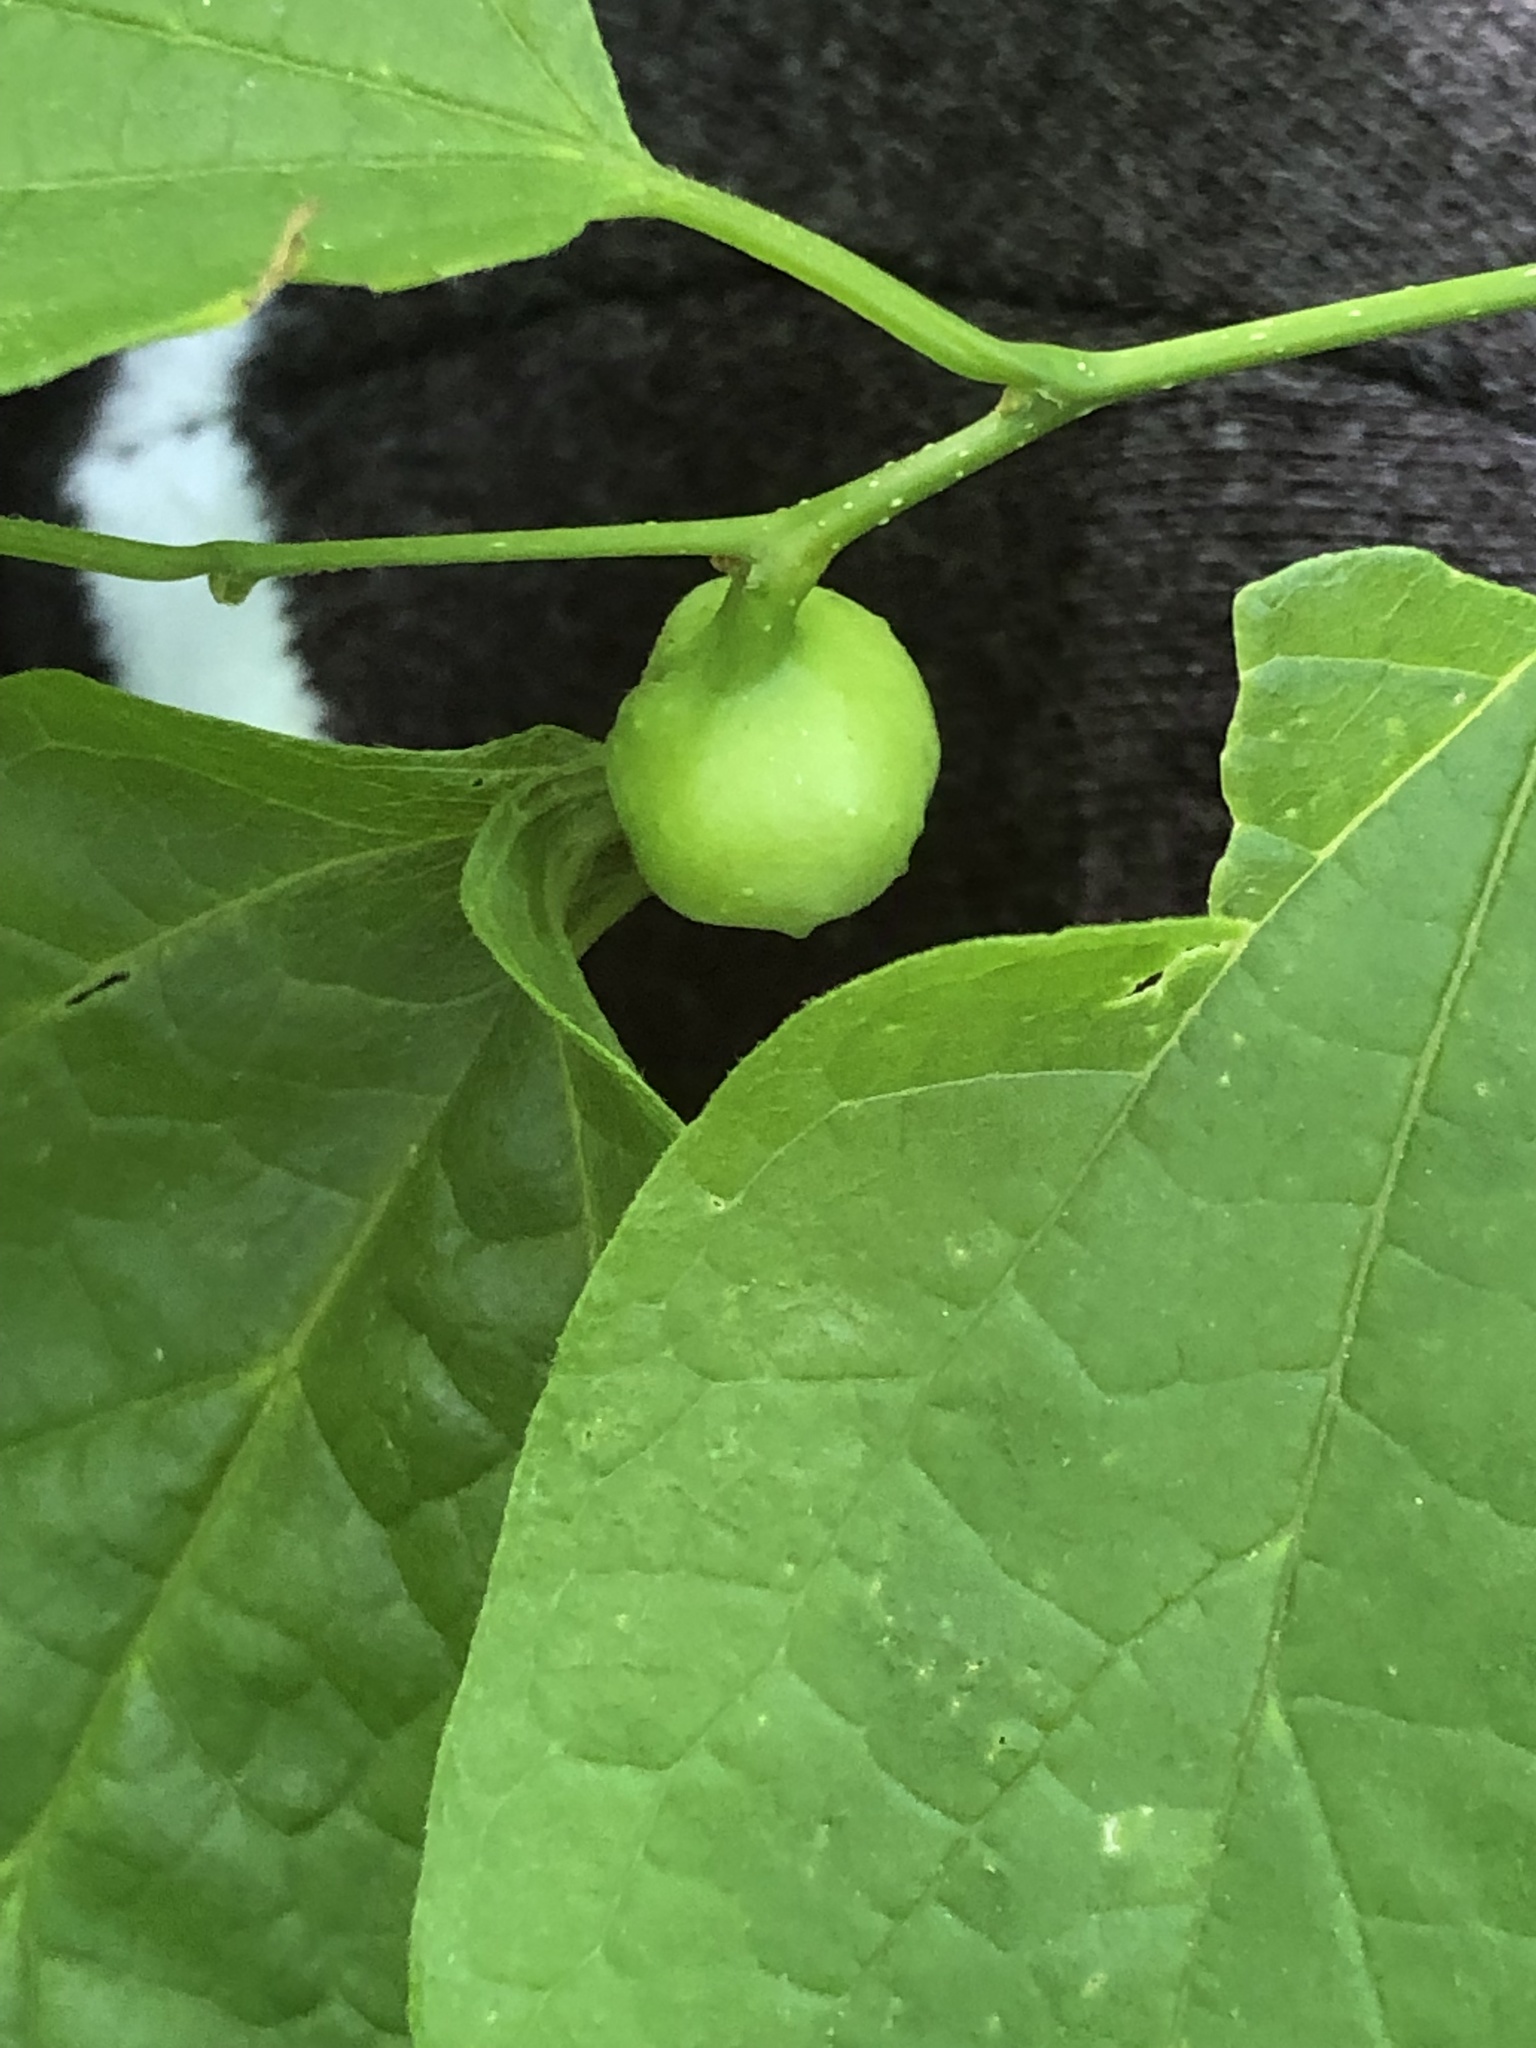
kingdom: Animalia
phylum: Arthropoda
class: Insecta
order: Hemiptera
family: Aphalaridae
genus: Pachypsylla
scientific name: Pachypsylla venusta
